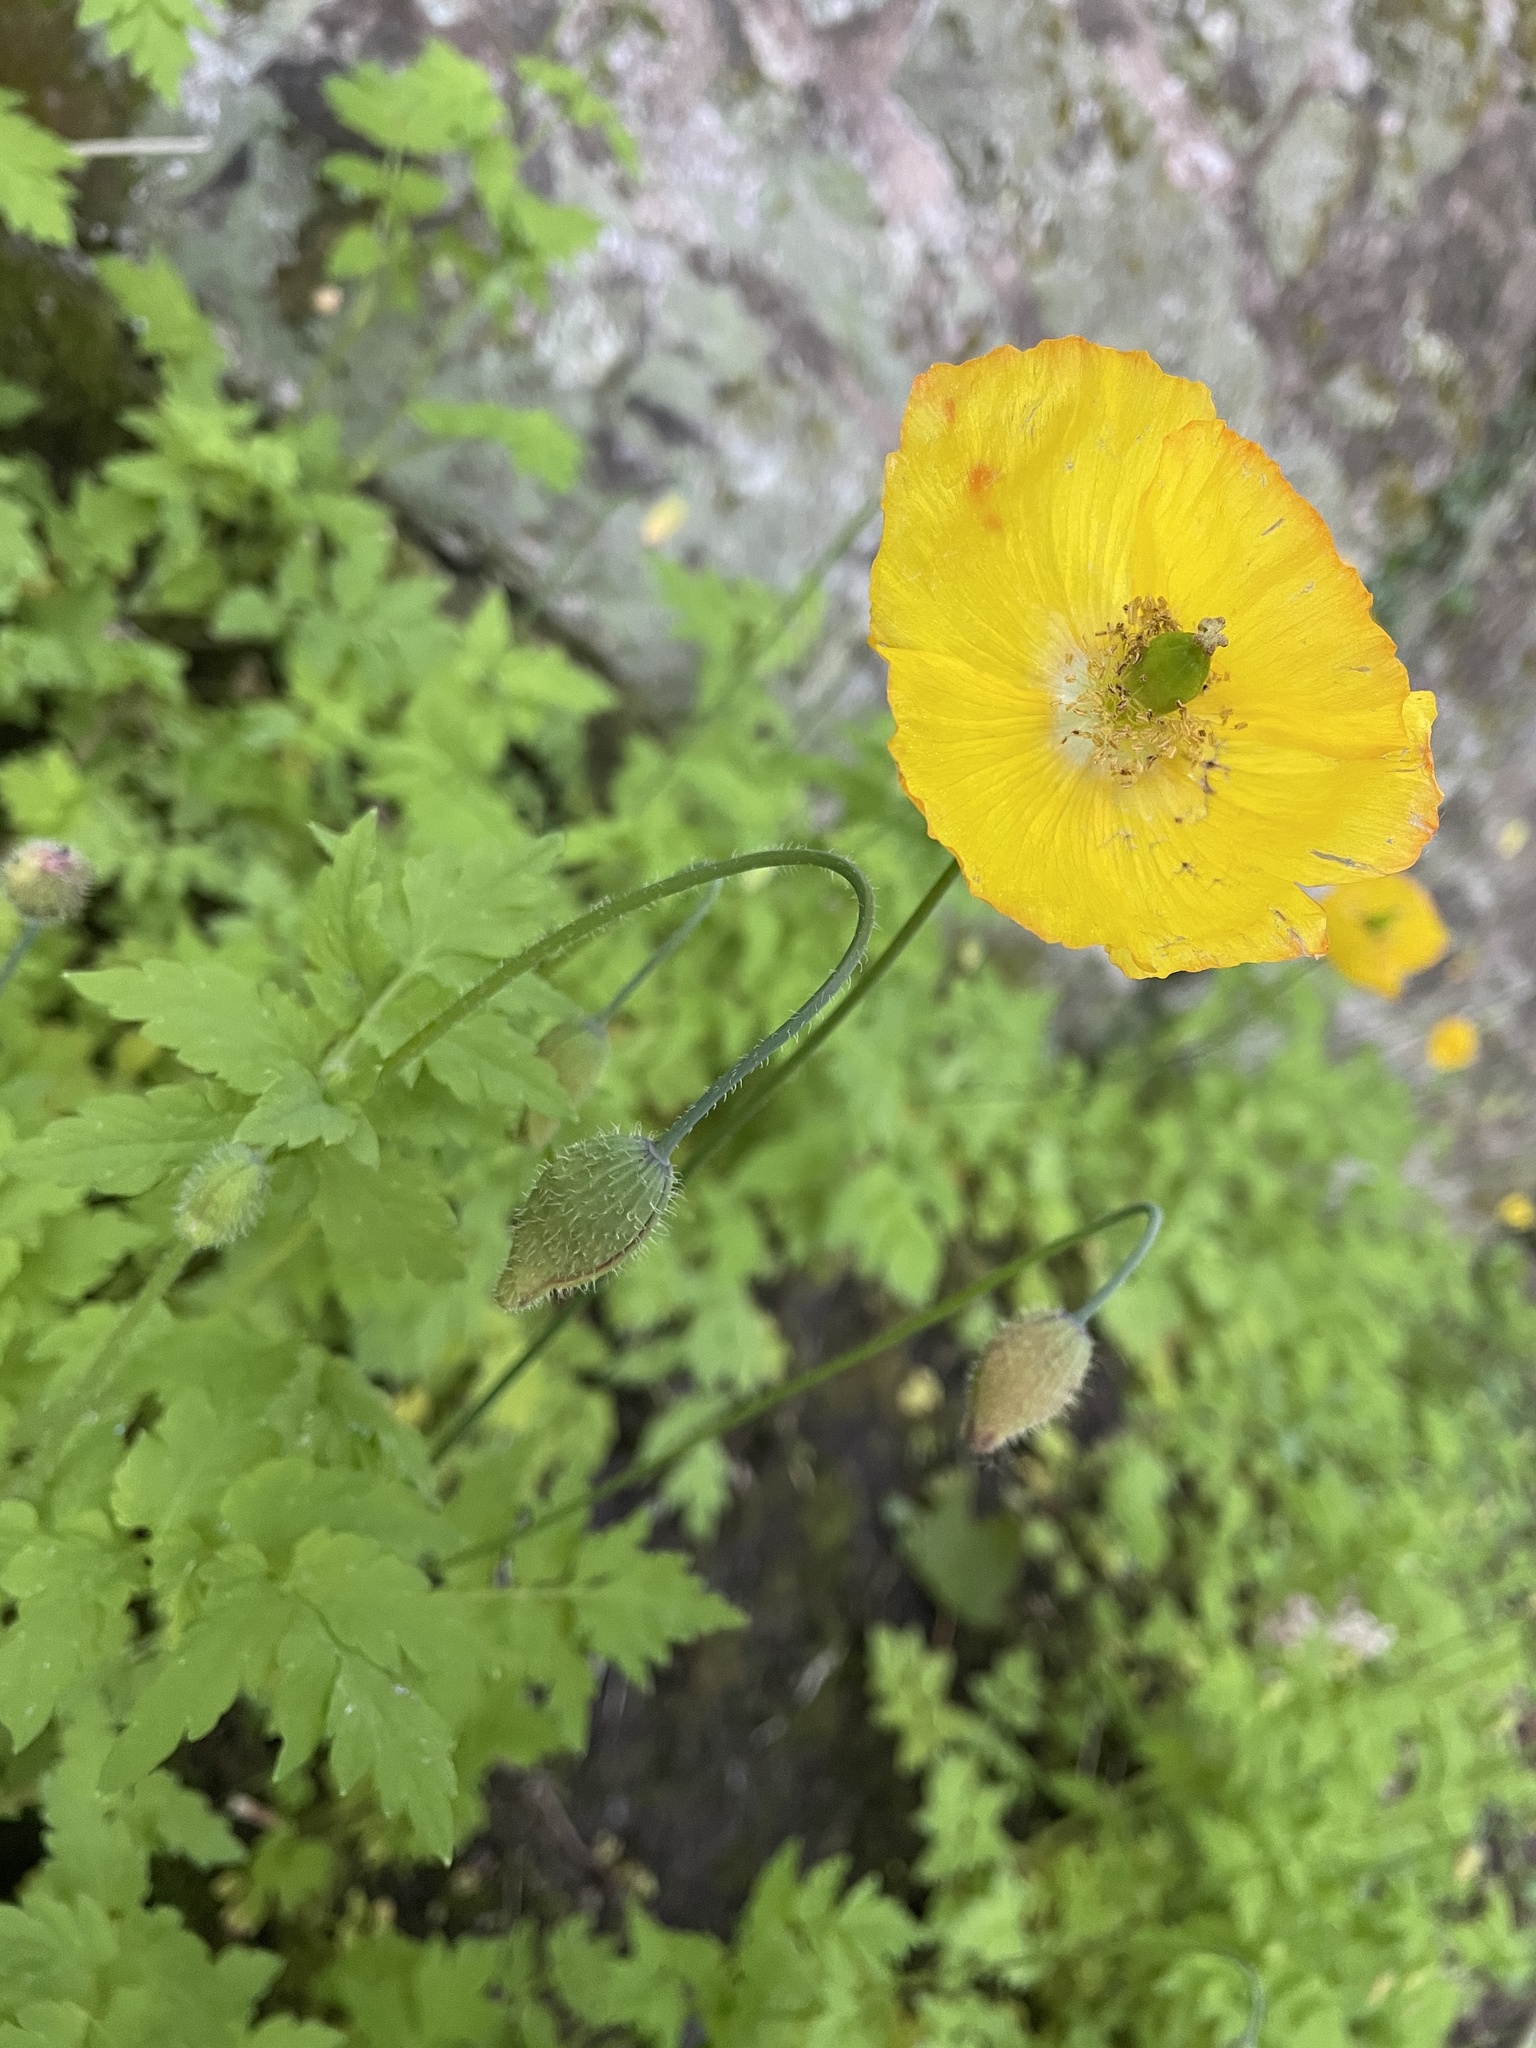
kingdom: Plantae
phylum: Tracheophyta
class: Magnoliopsida
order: Ranunculales
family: Papaveraceae
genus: Papaver
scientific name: Papaver cambricum
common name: Poppy
